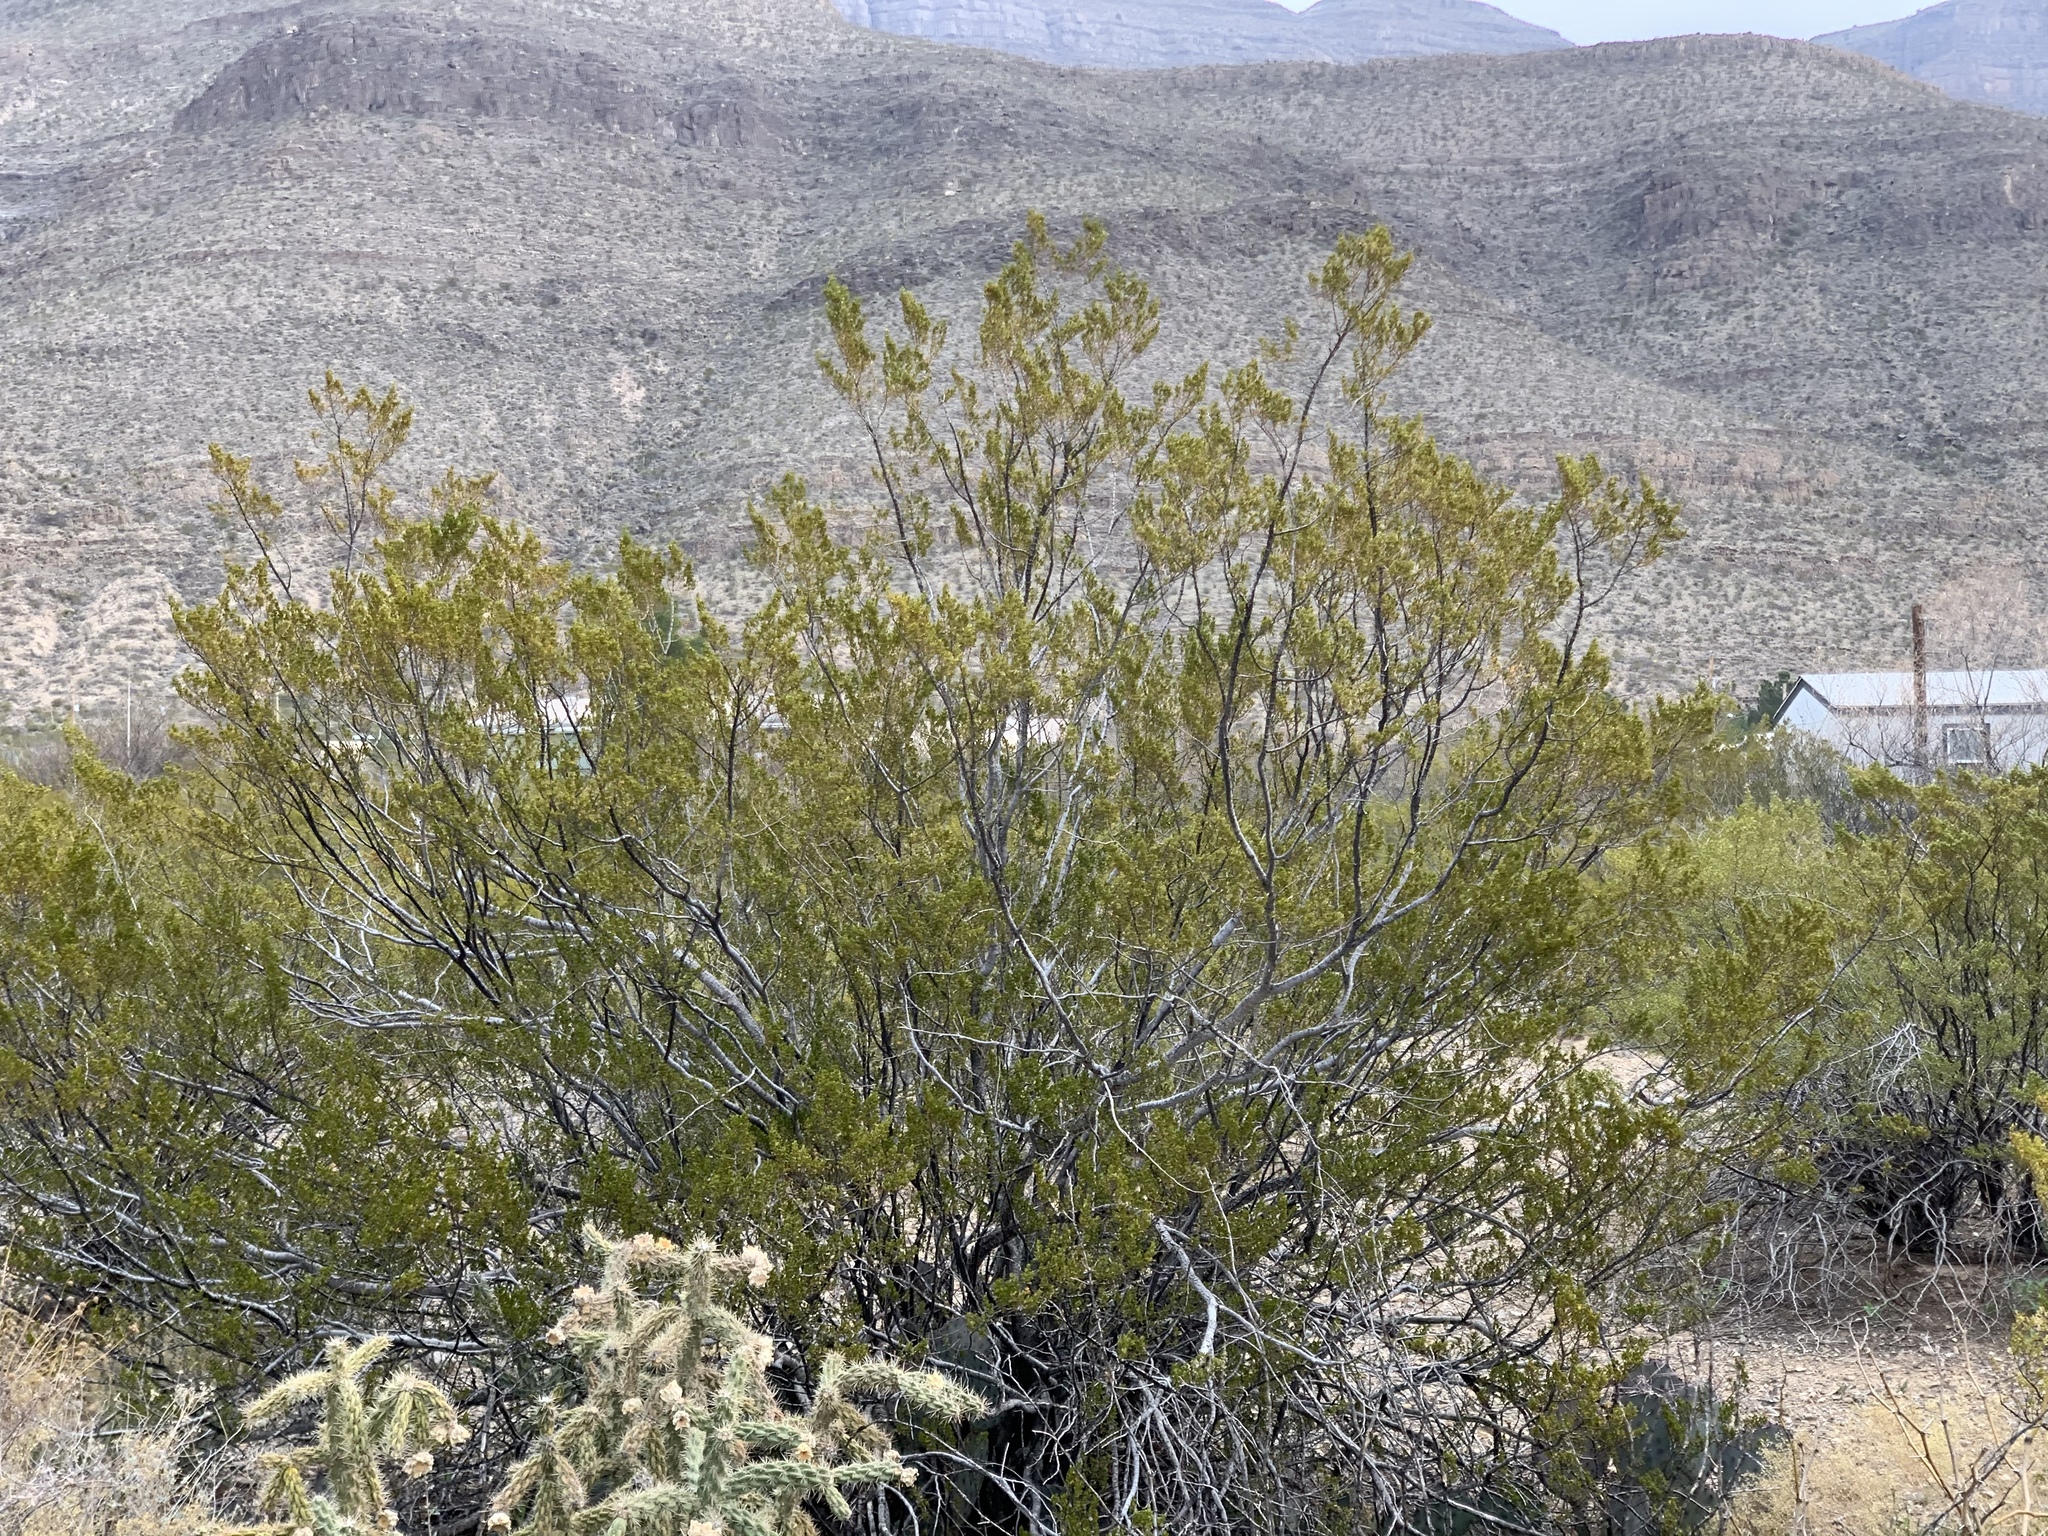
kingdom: Plantae
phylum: Tracheophyta
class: Magnoliopsida
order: Zygophyllales
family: Zygophyllaceae
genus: Larrea
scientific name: Larrea tridentata
